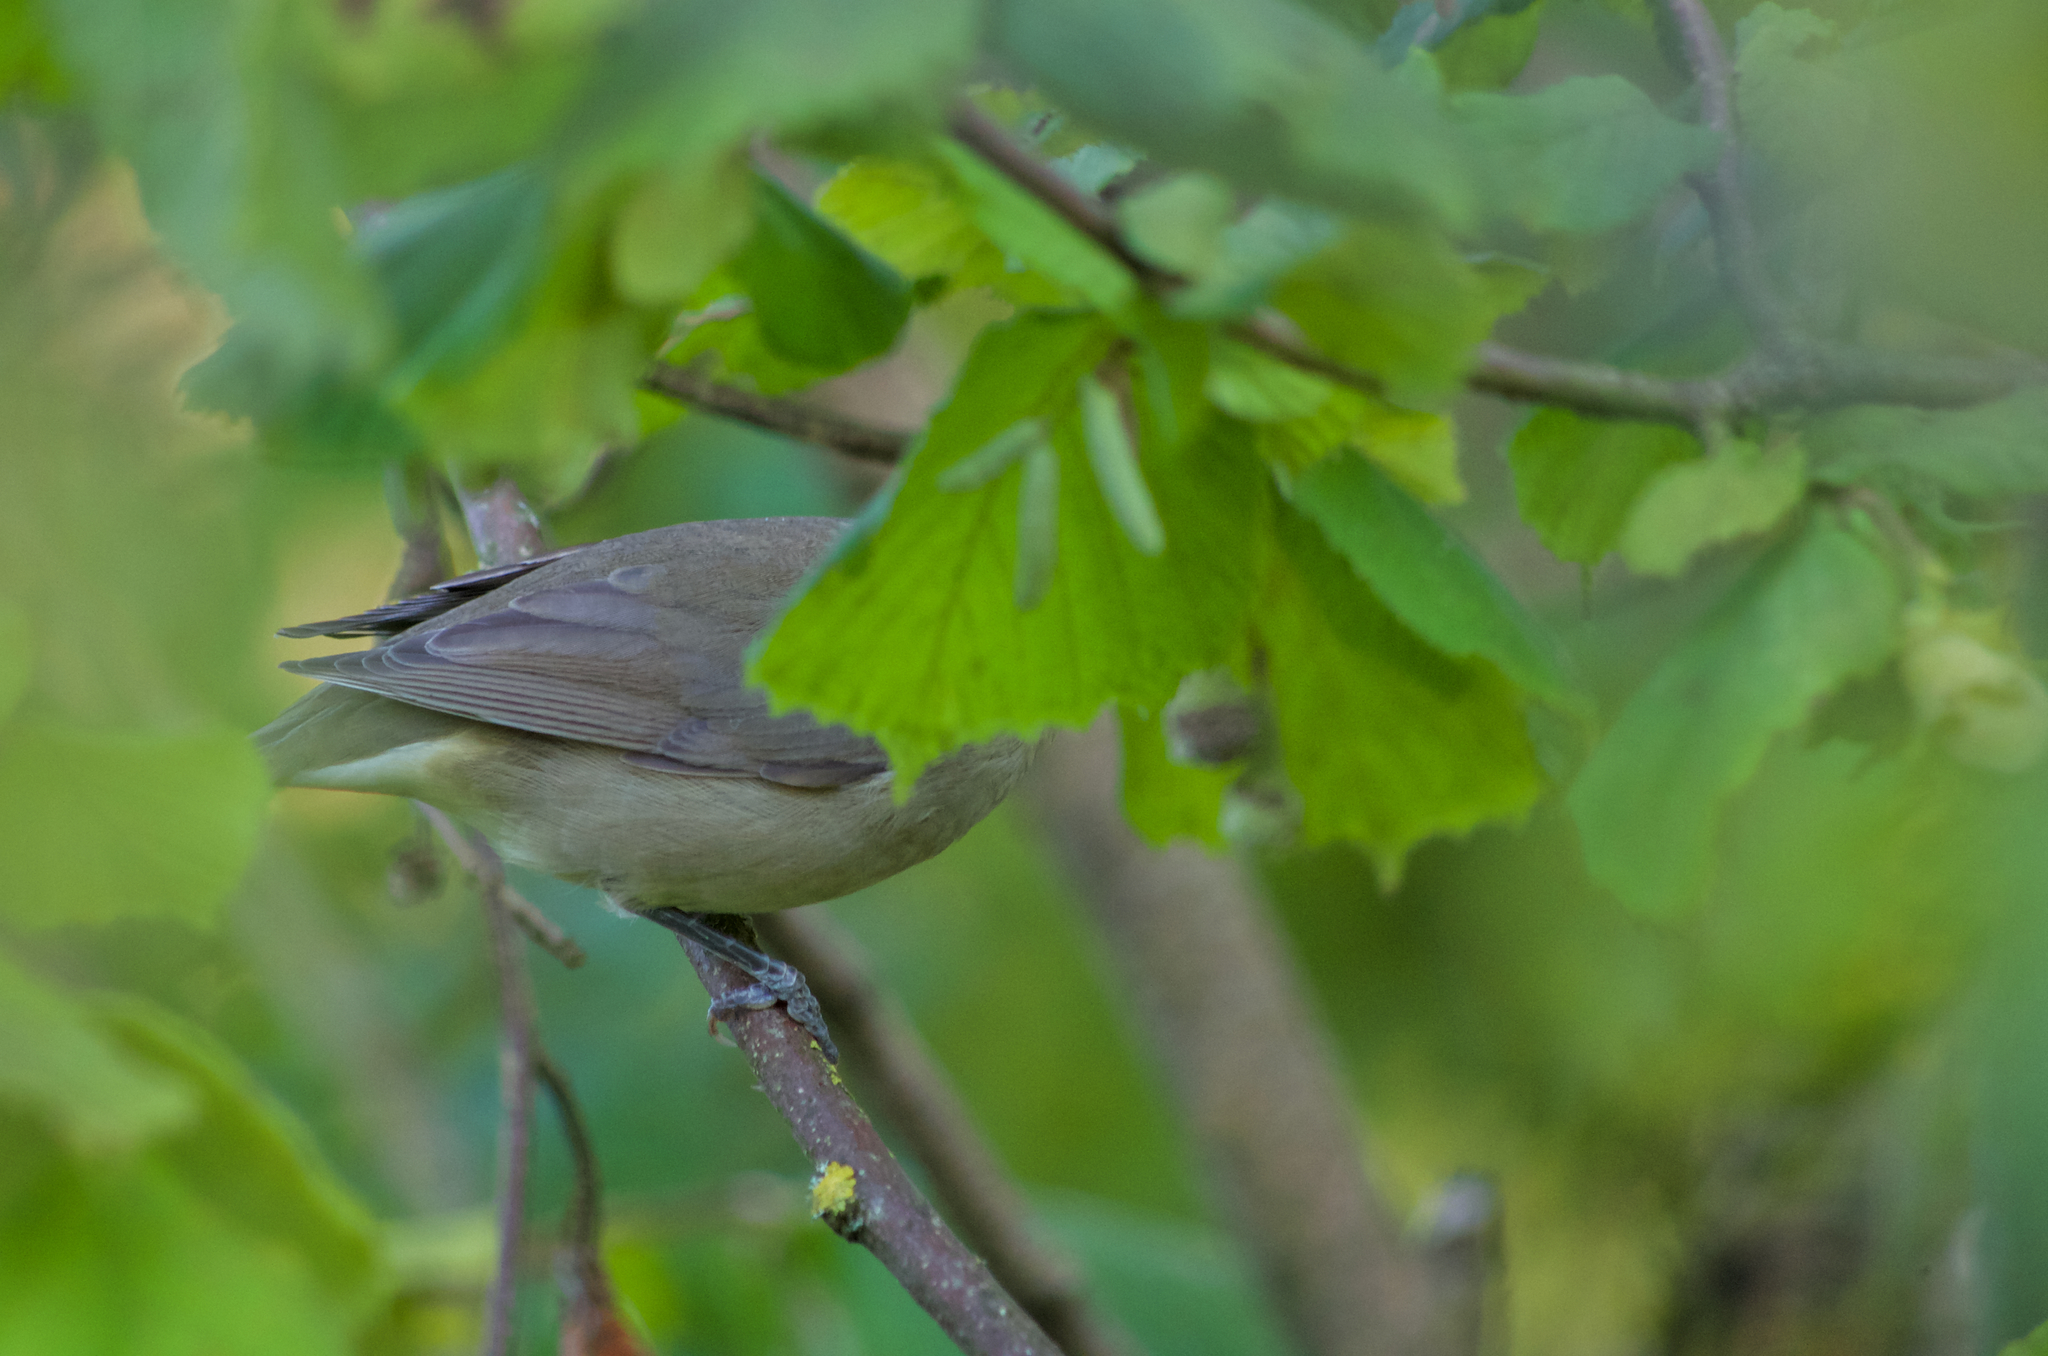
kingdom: Animalia
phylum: Chordata
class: Aves
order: Passeriformes
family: Sylviidae
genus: Sylvia
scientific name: Sylvia atricapilla
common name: Eurasian blackcap
